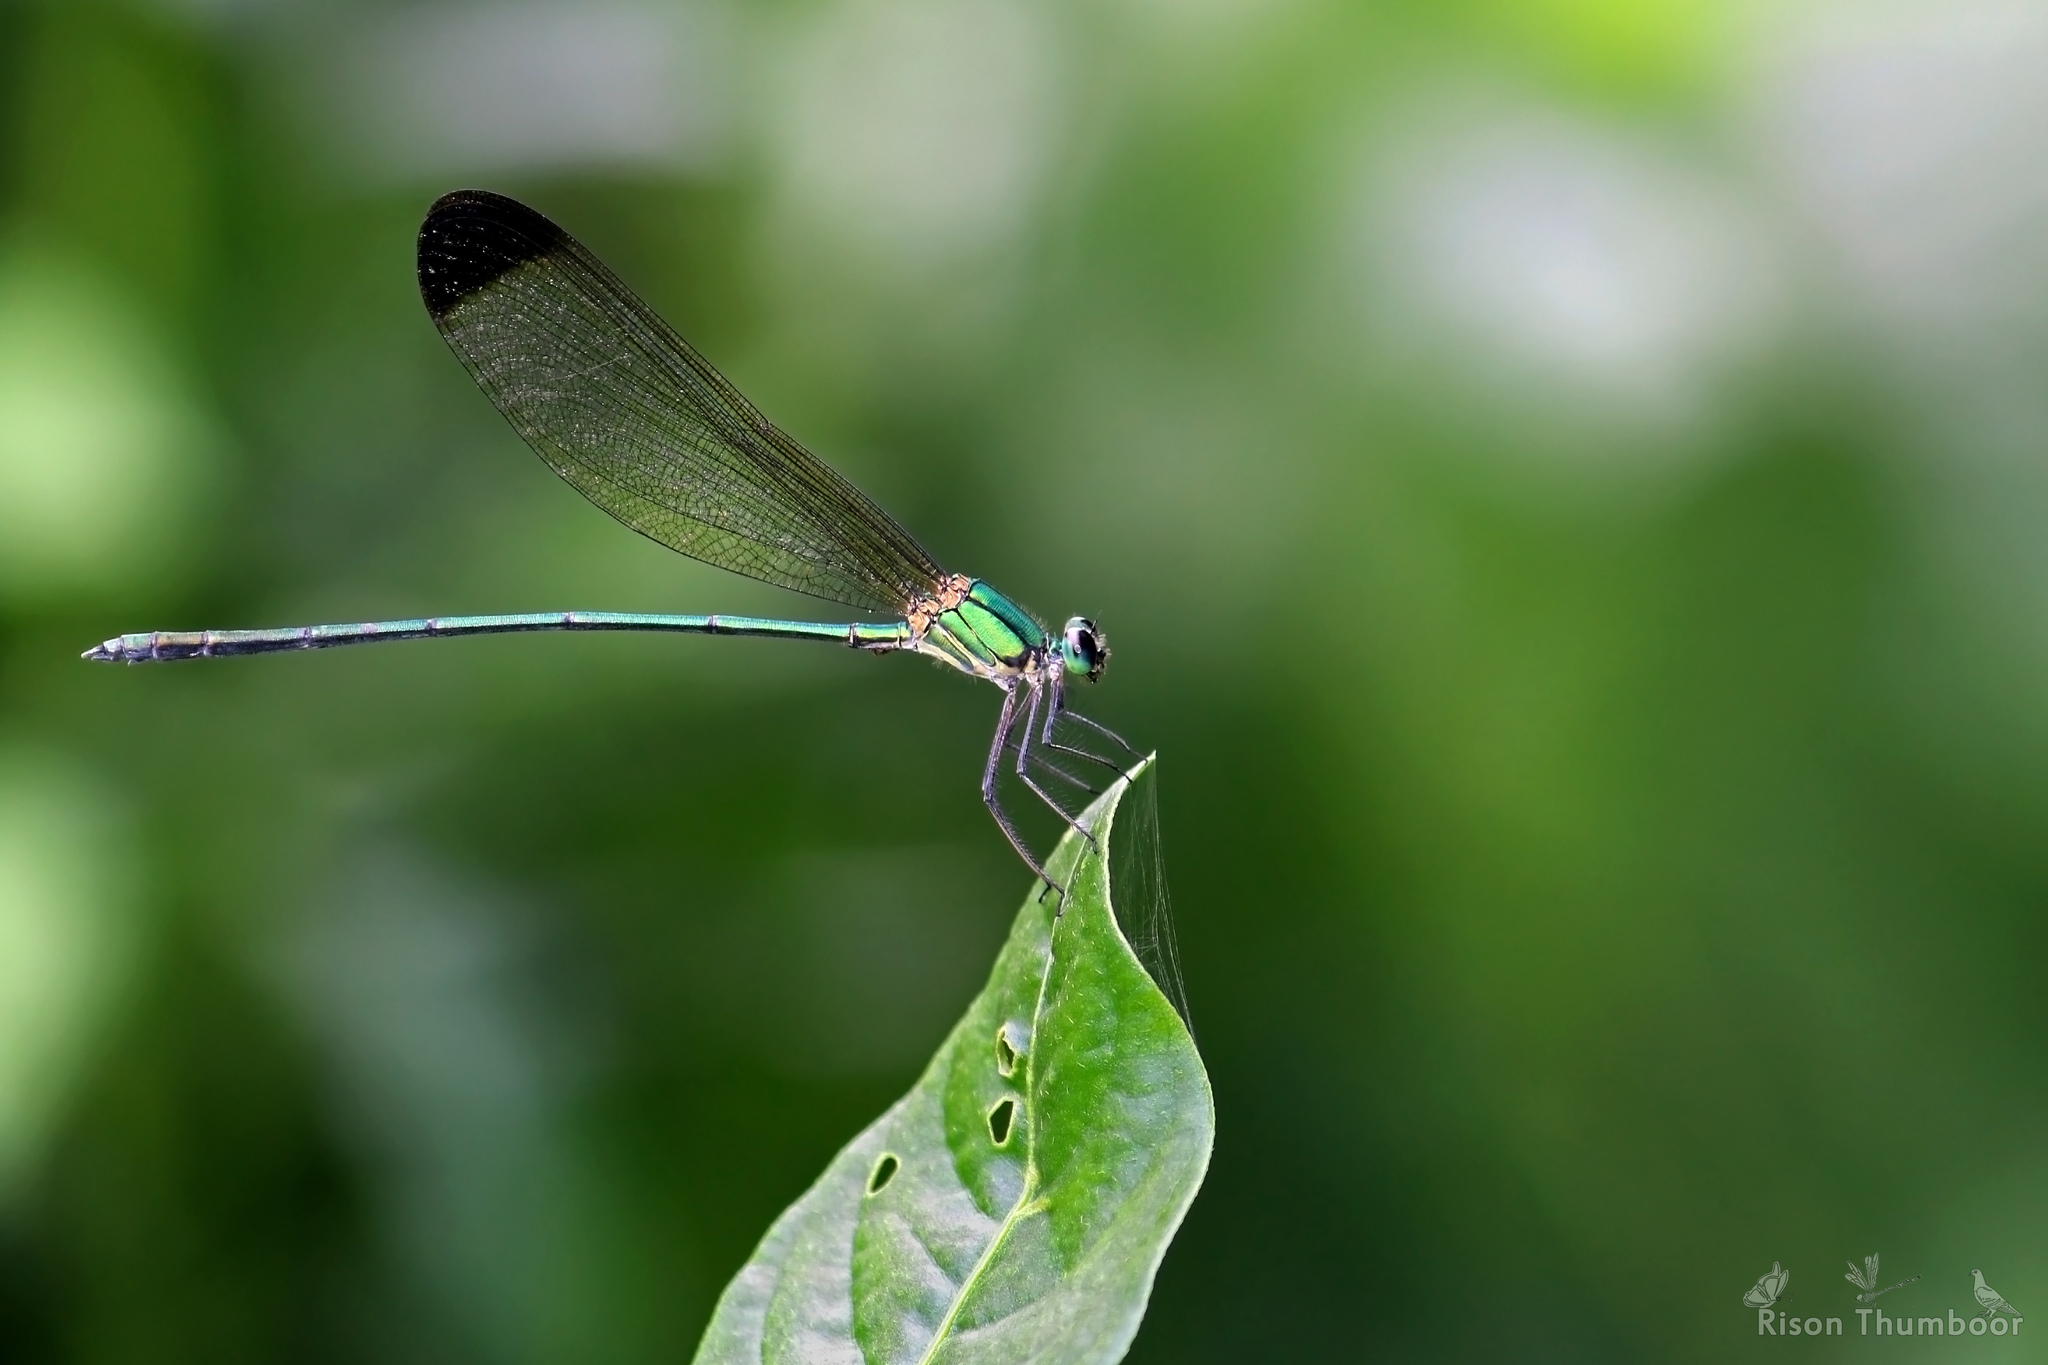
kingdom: Animalia
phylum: Arthropoda
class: Insecta
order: Odonata
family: Calopterygidae
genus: Vestalis
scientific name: Vestalis apicalis
